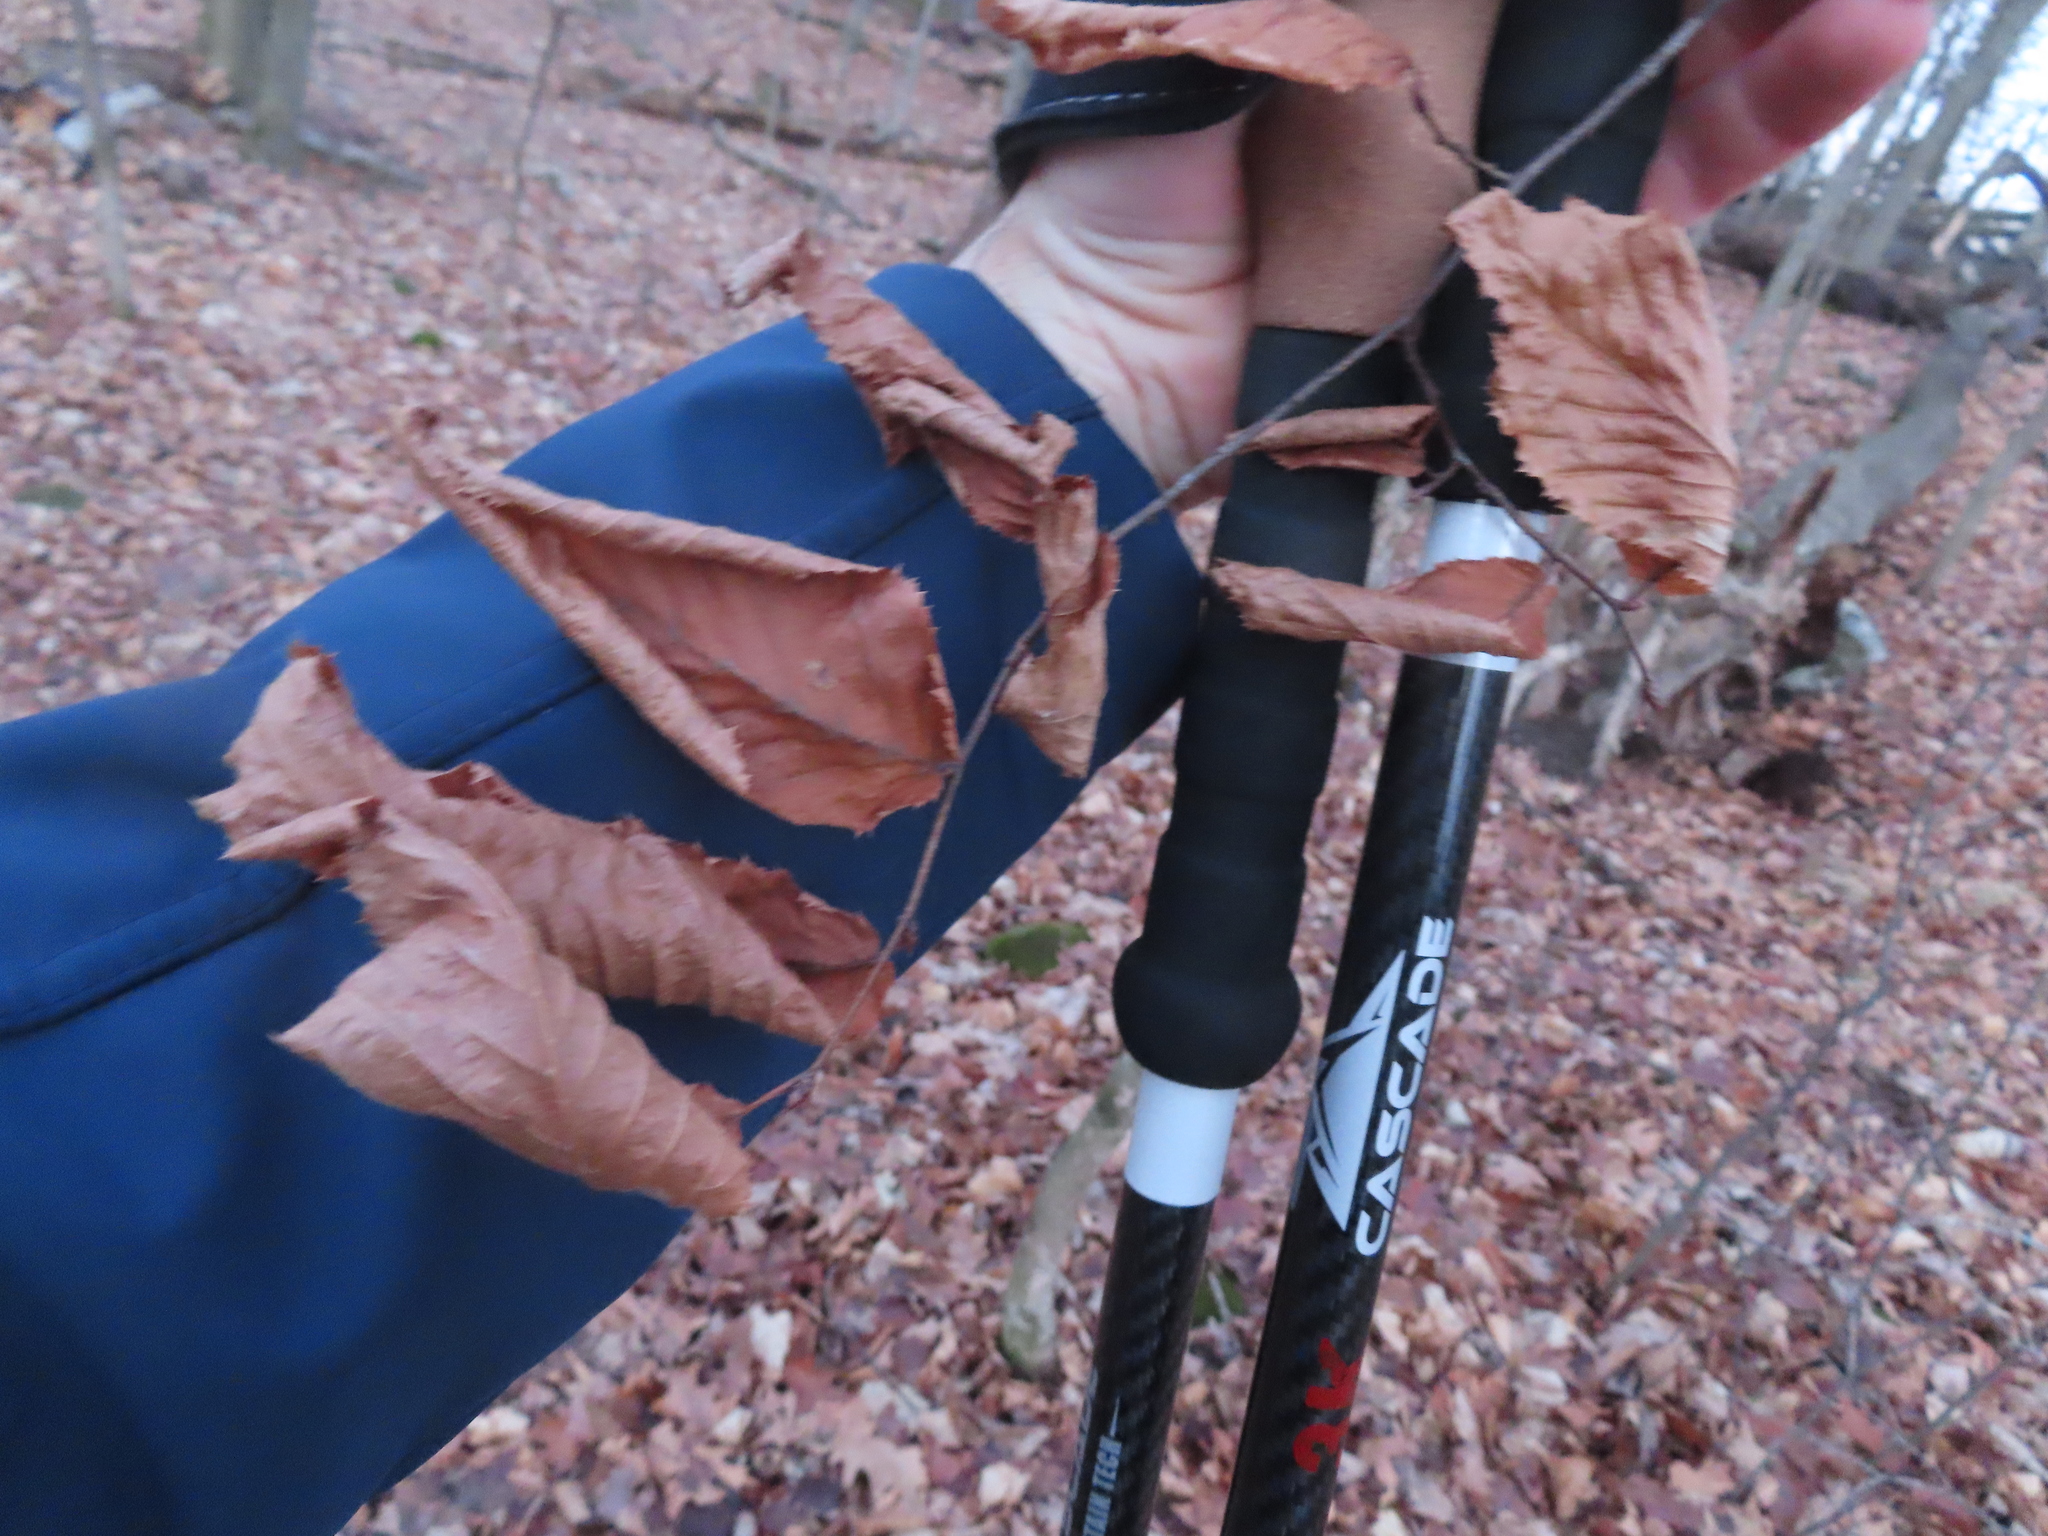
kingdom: Plantae
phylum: Tracheophyta
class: Magnoliopsida
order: Fagales
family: Fagaceae
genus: Fagus
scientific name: Fagus grandifolia
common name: American beech
